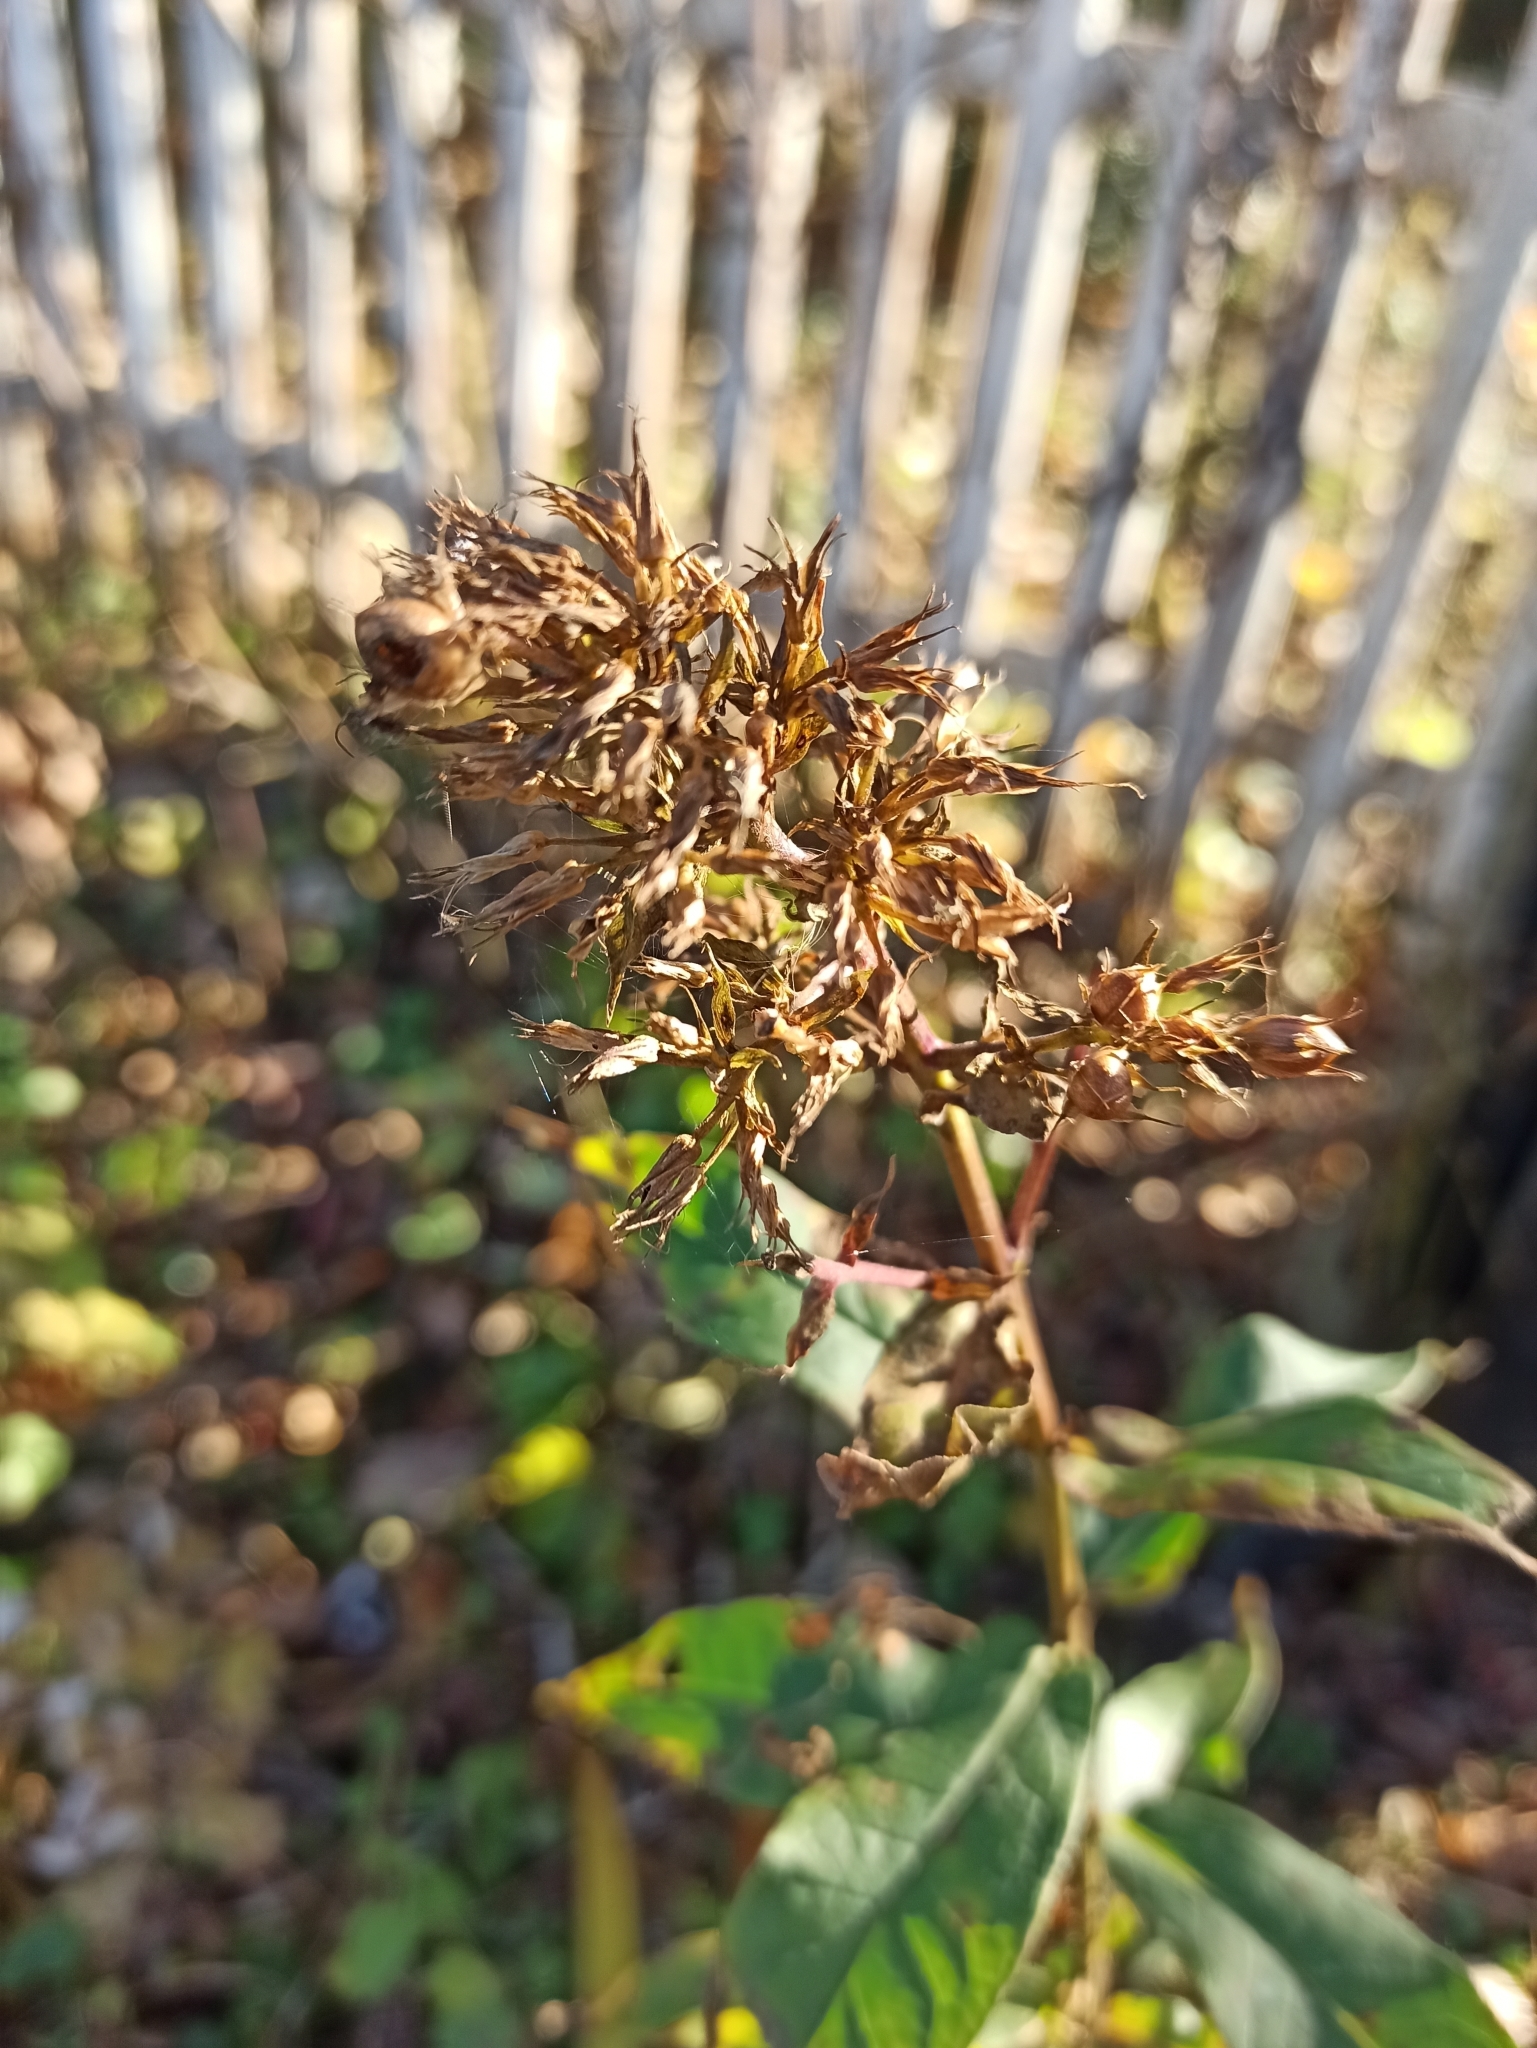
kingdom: Plantae
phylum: Tracheophyta
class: Magnoliopsida
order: Ericales
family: Polemoniaceae
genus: Phlox
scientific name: Phlox paniculata
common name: Fall phlox
